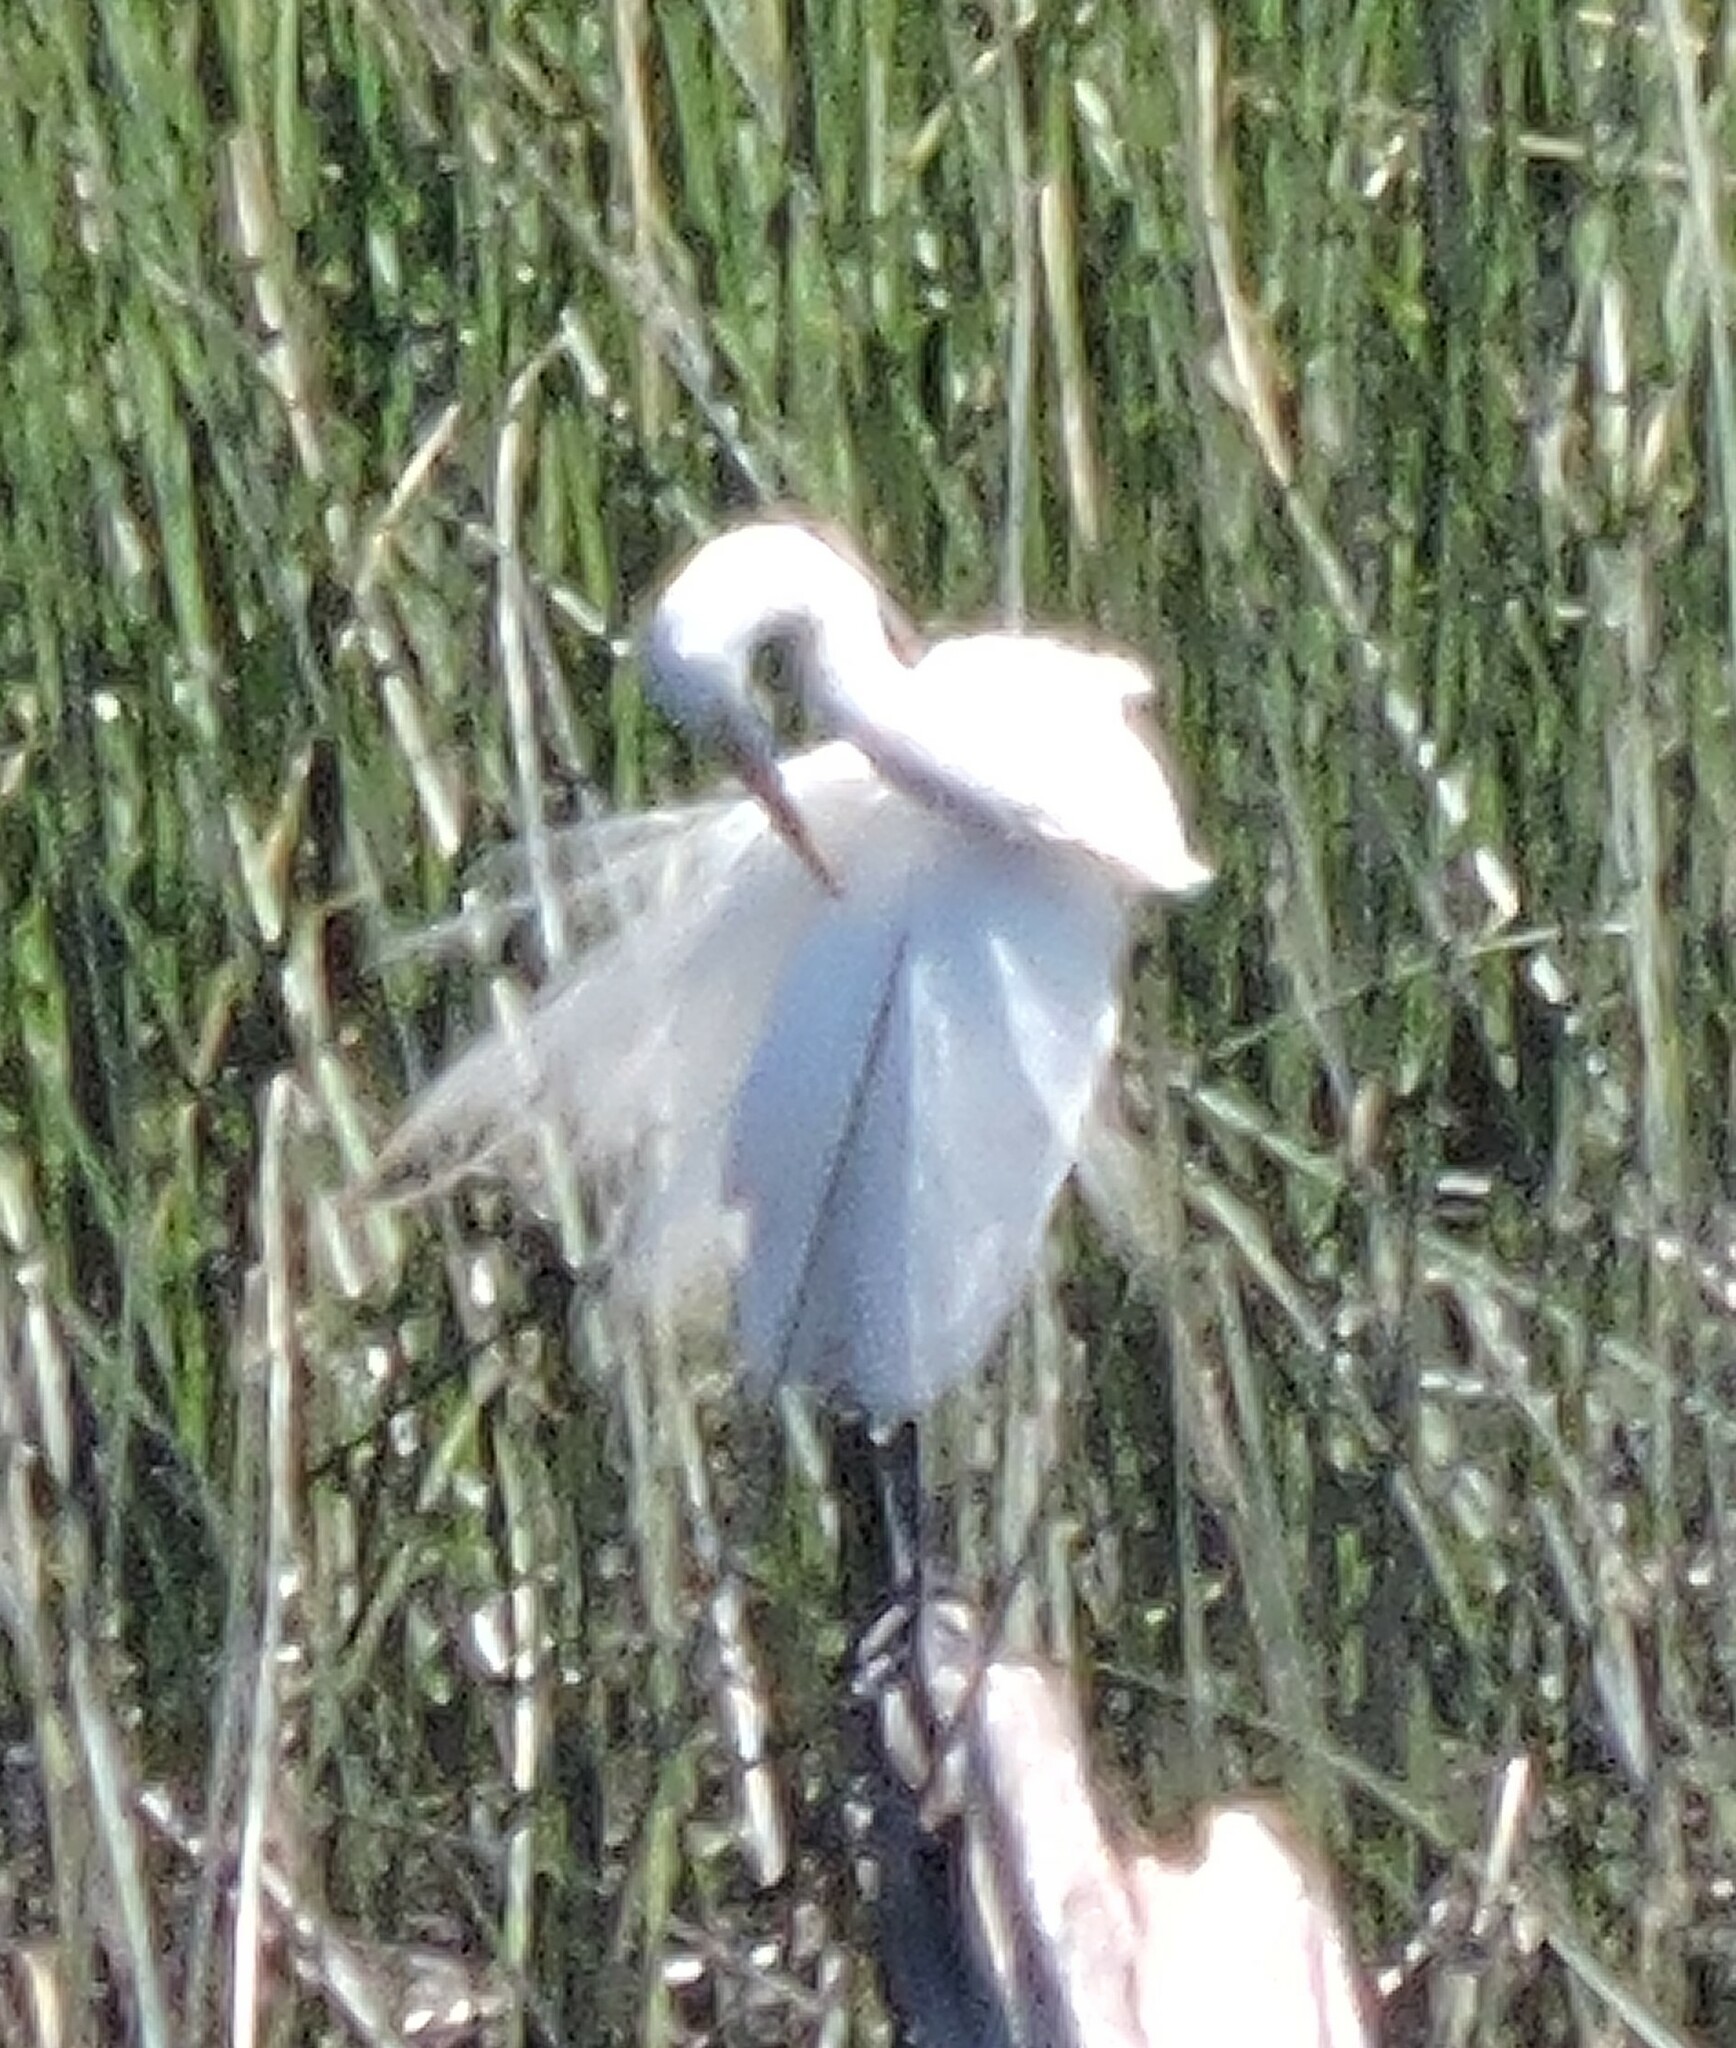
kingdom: Animalia
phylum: Chordata
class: Aves
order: Pelecaniformes
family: Ardeidae
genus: Ardea
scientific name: Ardea alba
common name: Great egret
